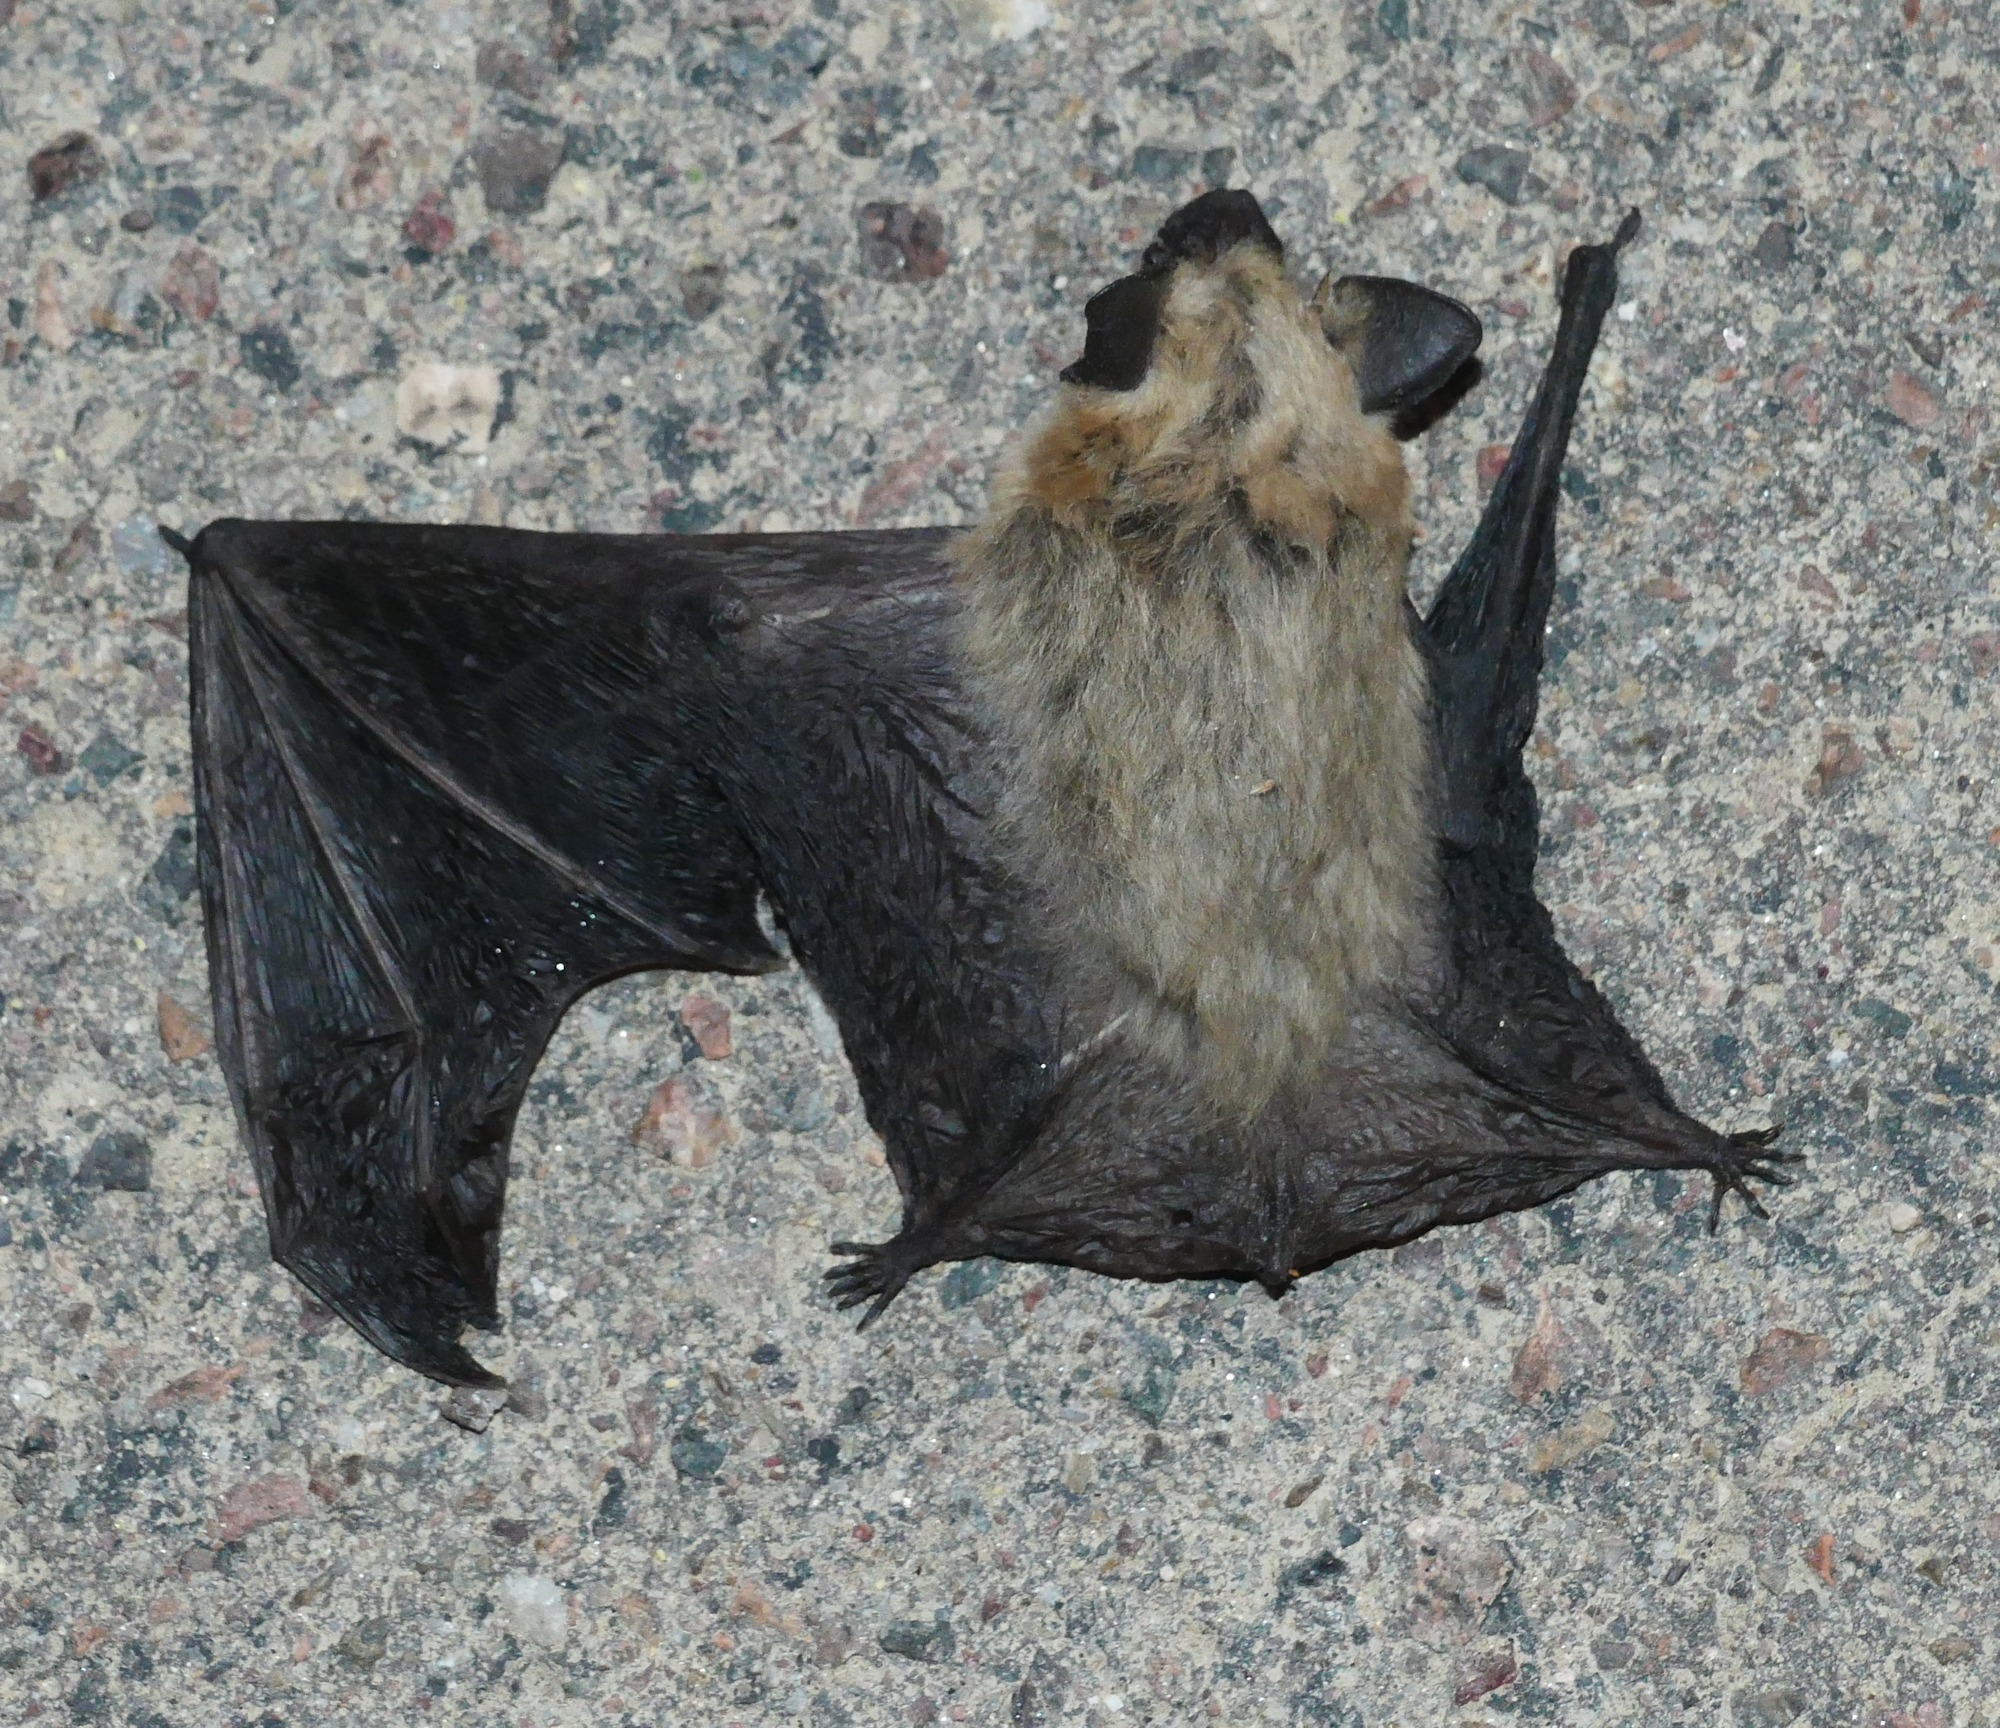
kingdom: Animalia
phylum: Chordata
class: Mammalia
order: Chiroptera
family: Vespertilionidae
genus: Parastrellus
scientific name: Parastrellus hesperus
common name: Canyon bat
